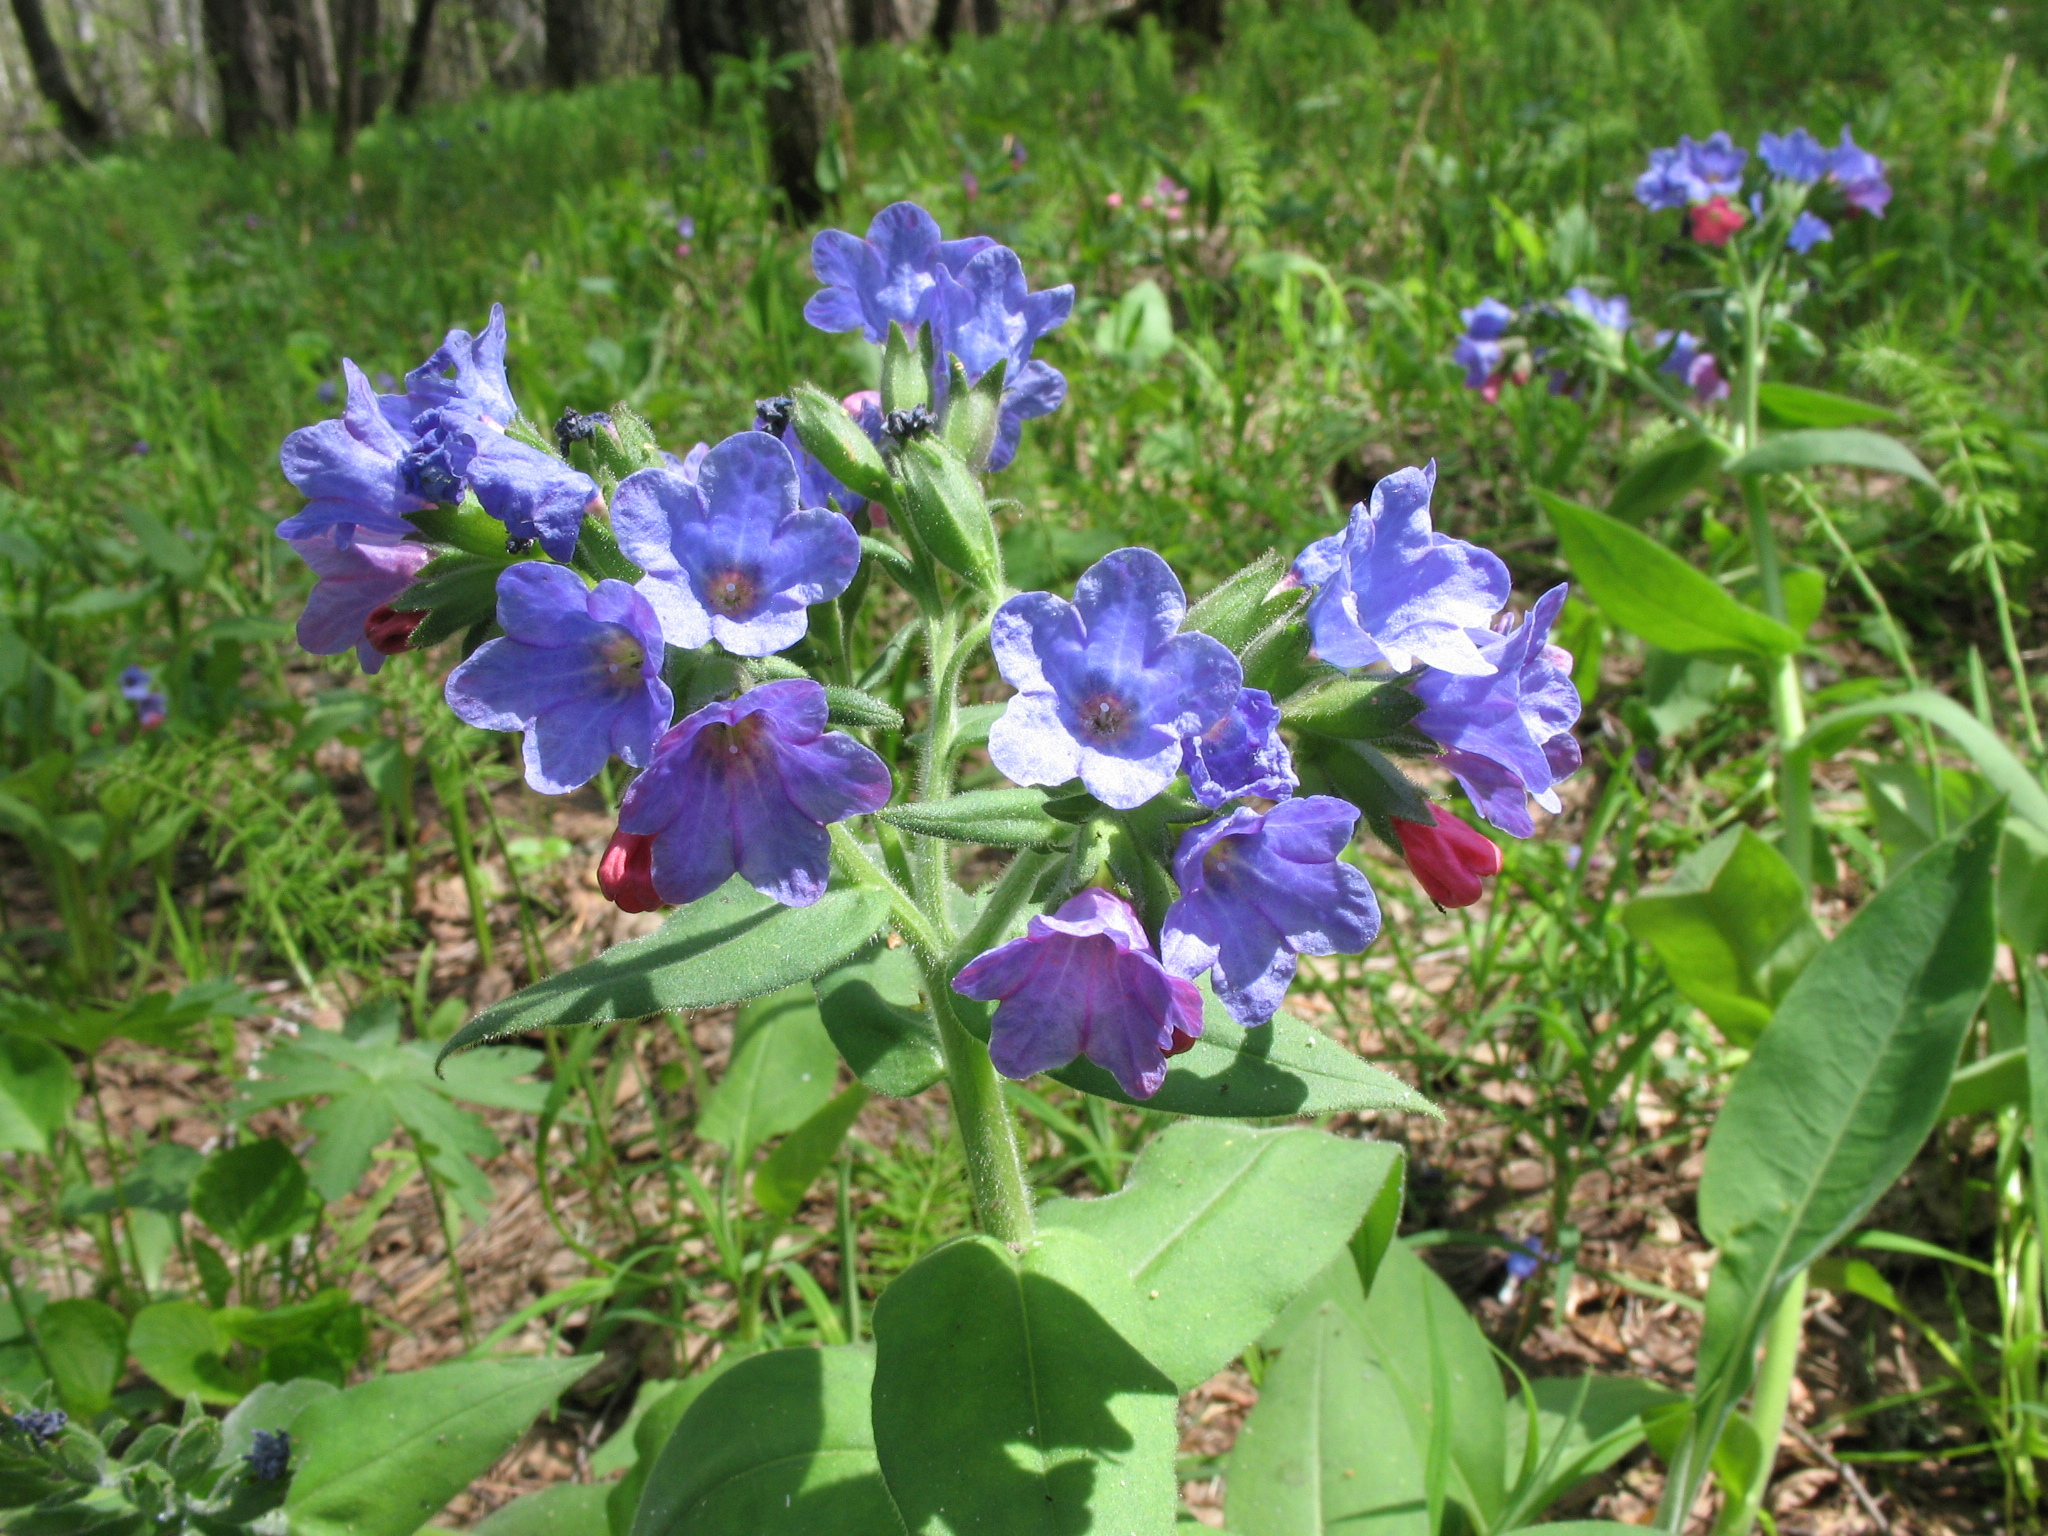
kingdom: Plantae
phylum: Tracheophyta
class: Magnoliopsida
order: Boraginales
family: Boraginaceae
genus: Pulmonaria
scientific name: Pulmonaria mollis
